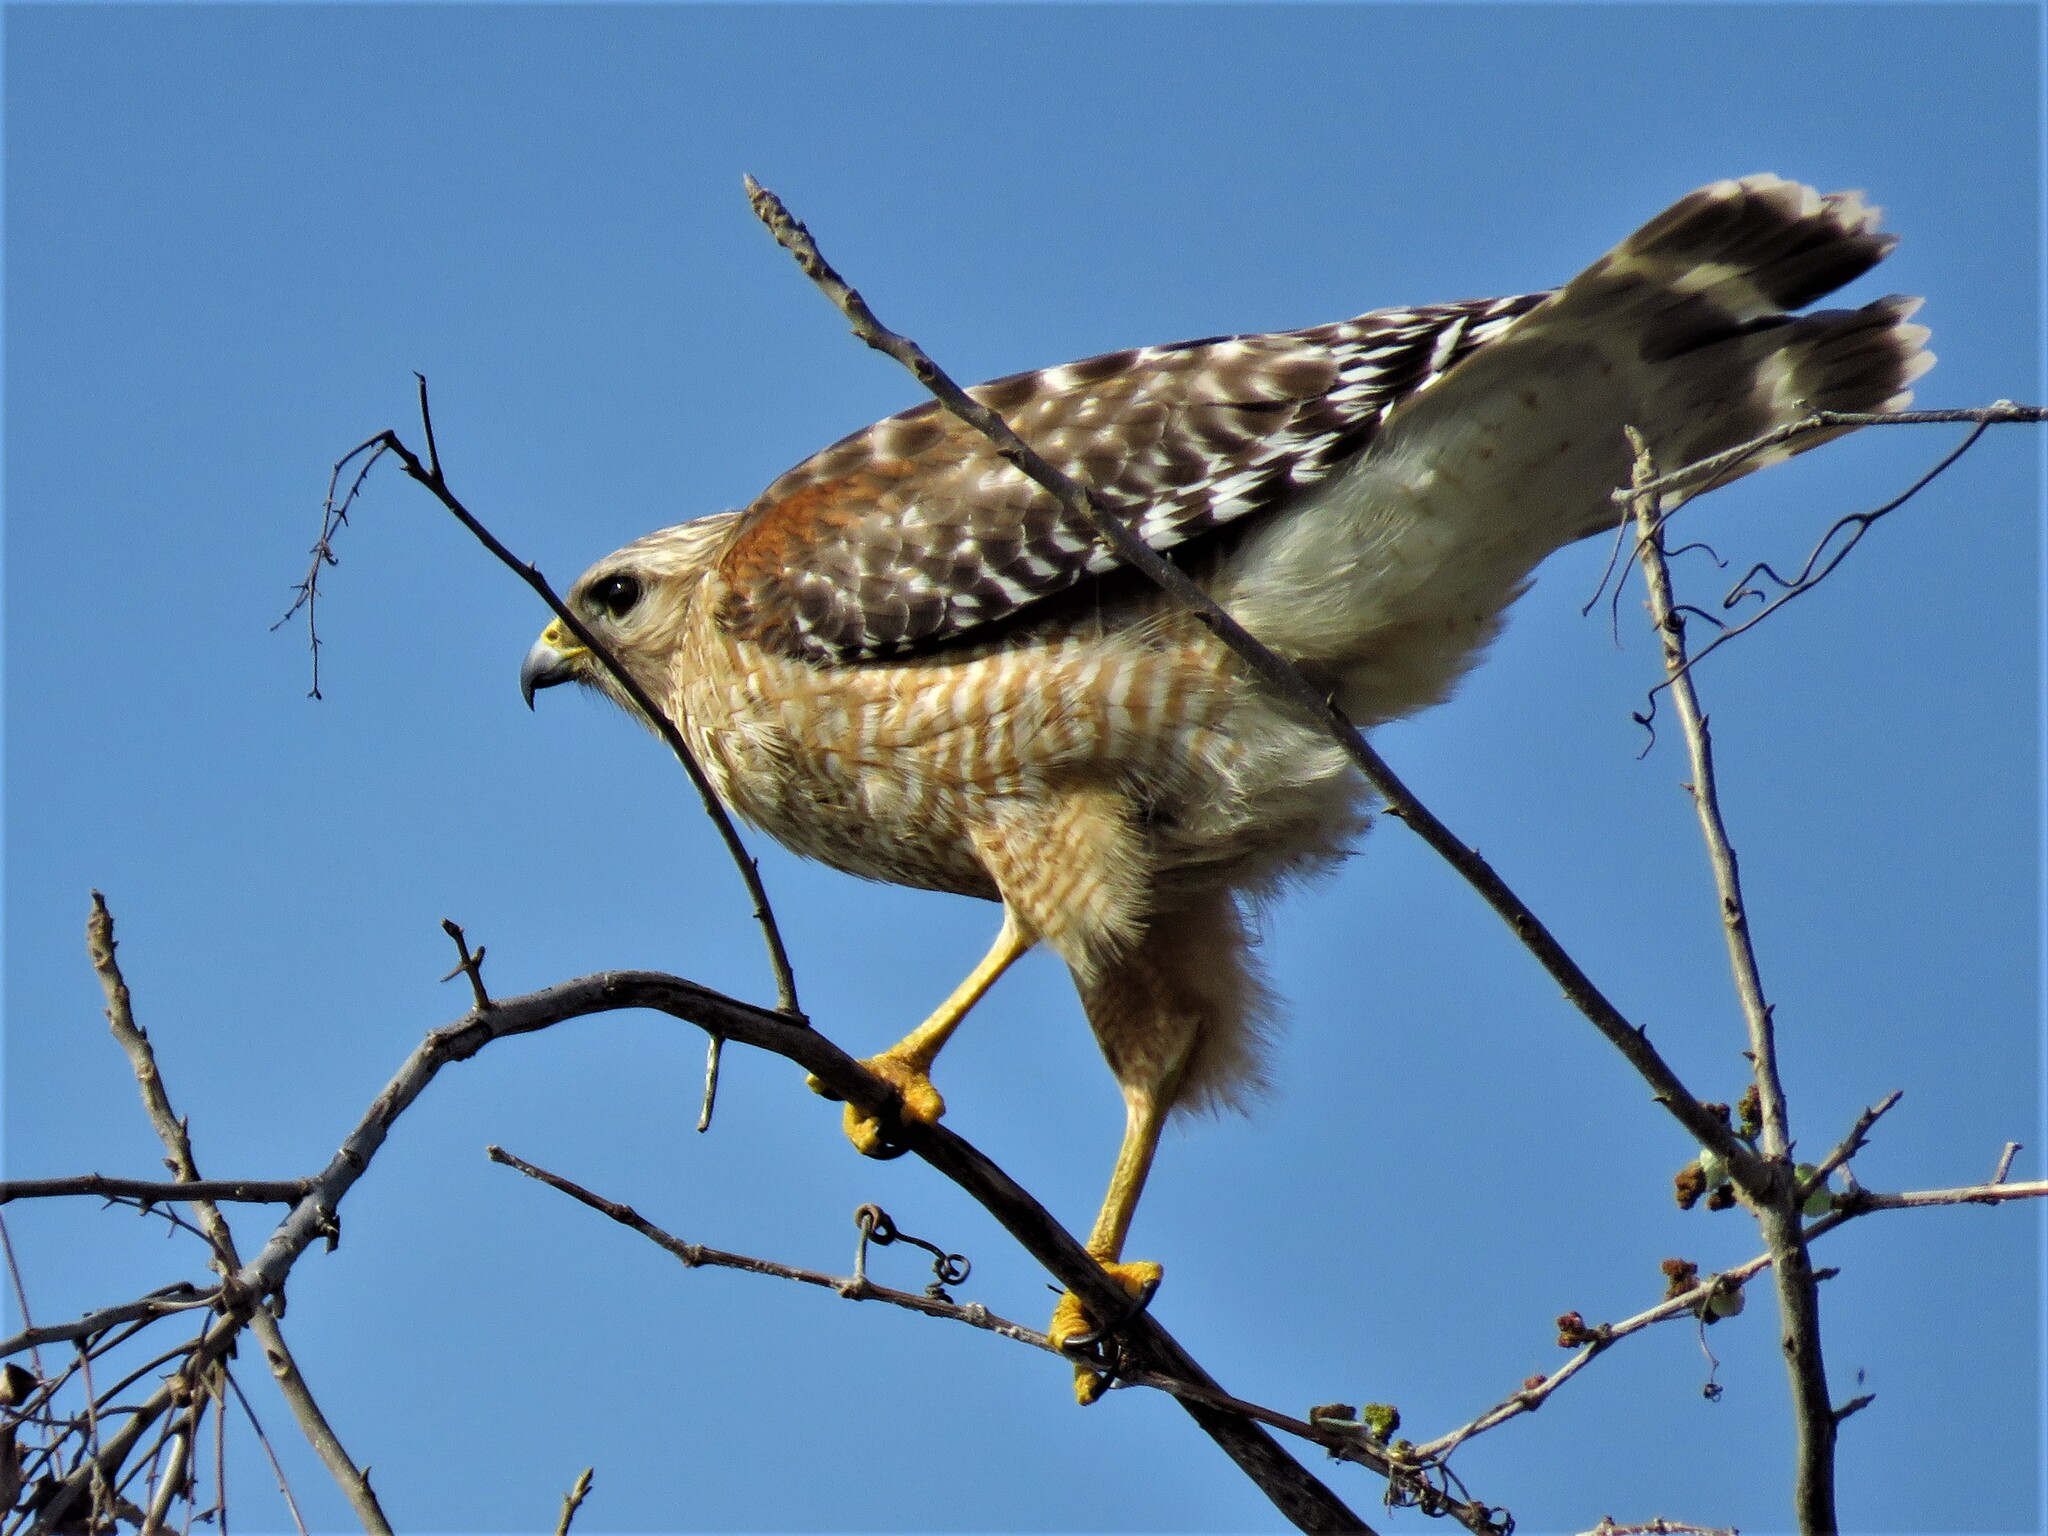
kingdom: Animalia
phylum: Chordata
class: Aves
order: Accipitriformes
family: Accipitridae
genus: Buteo
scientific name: Buteo lineatus
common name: Red-shouldered hawk
